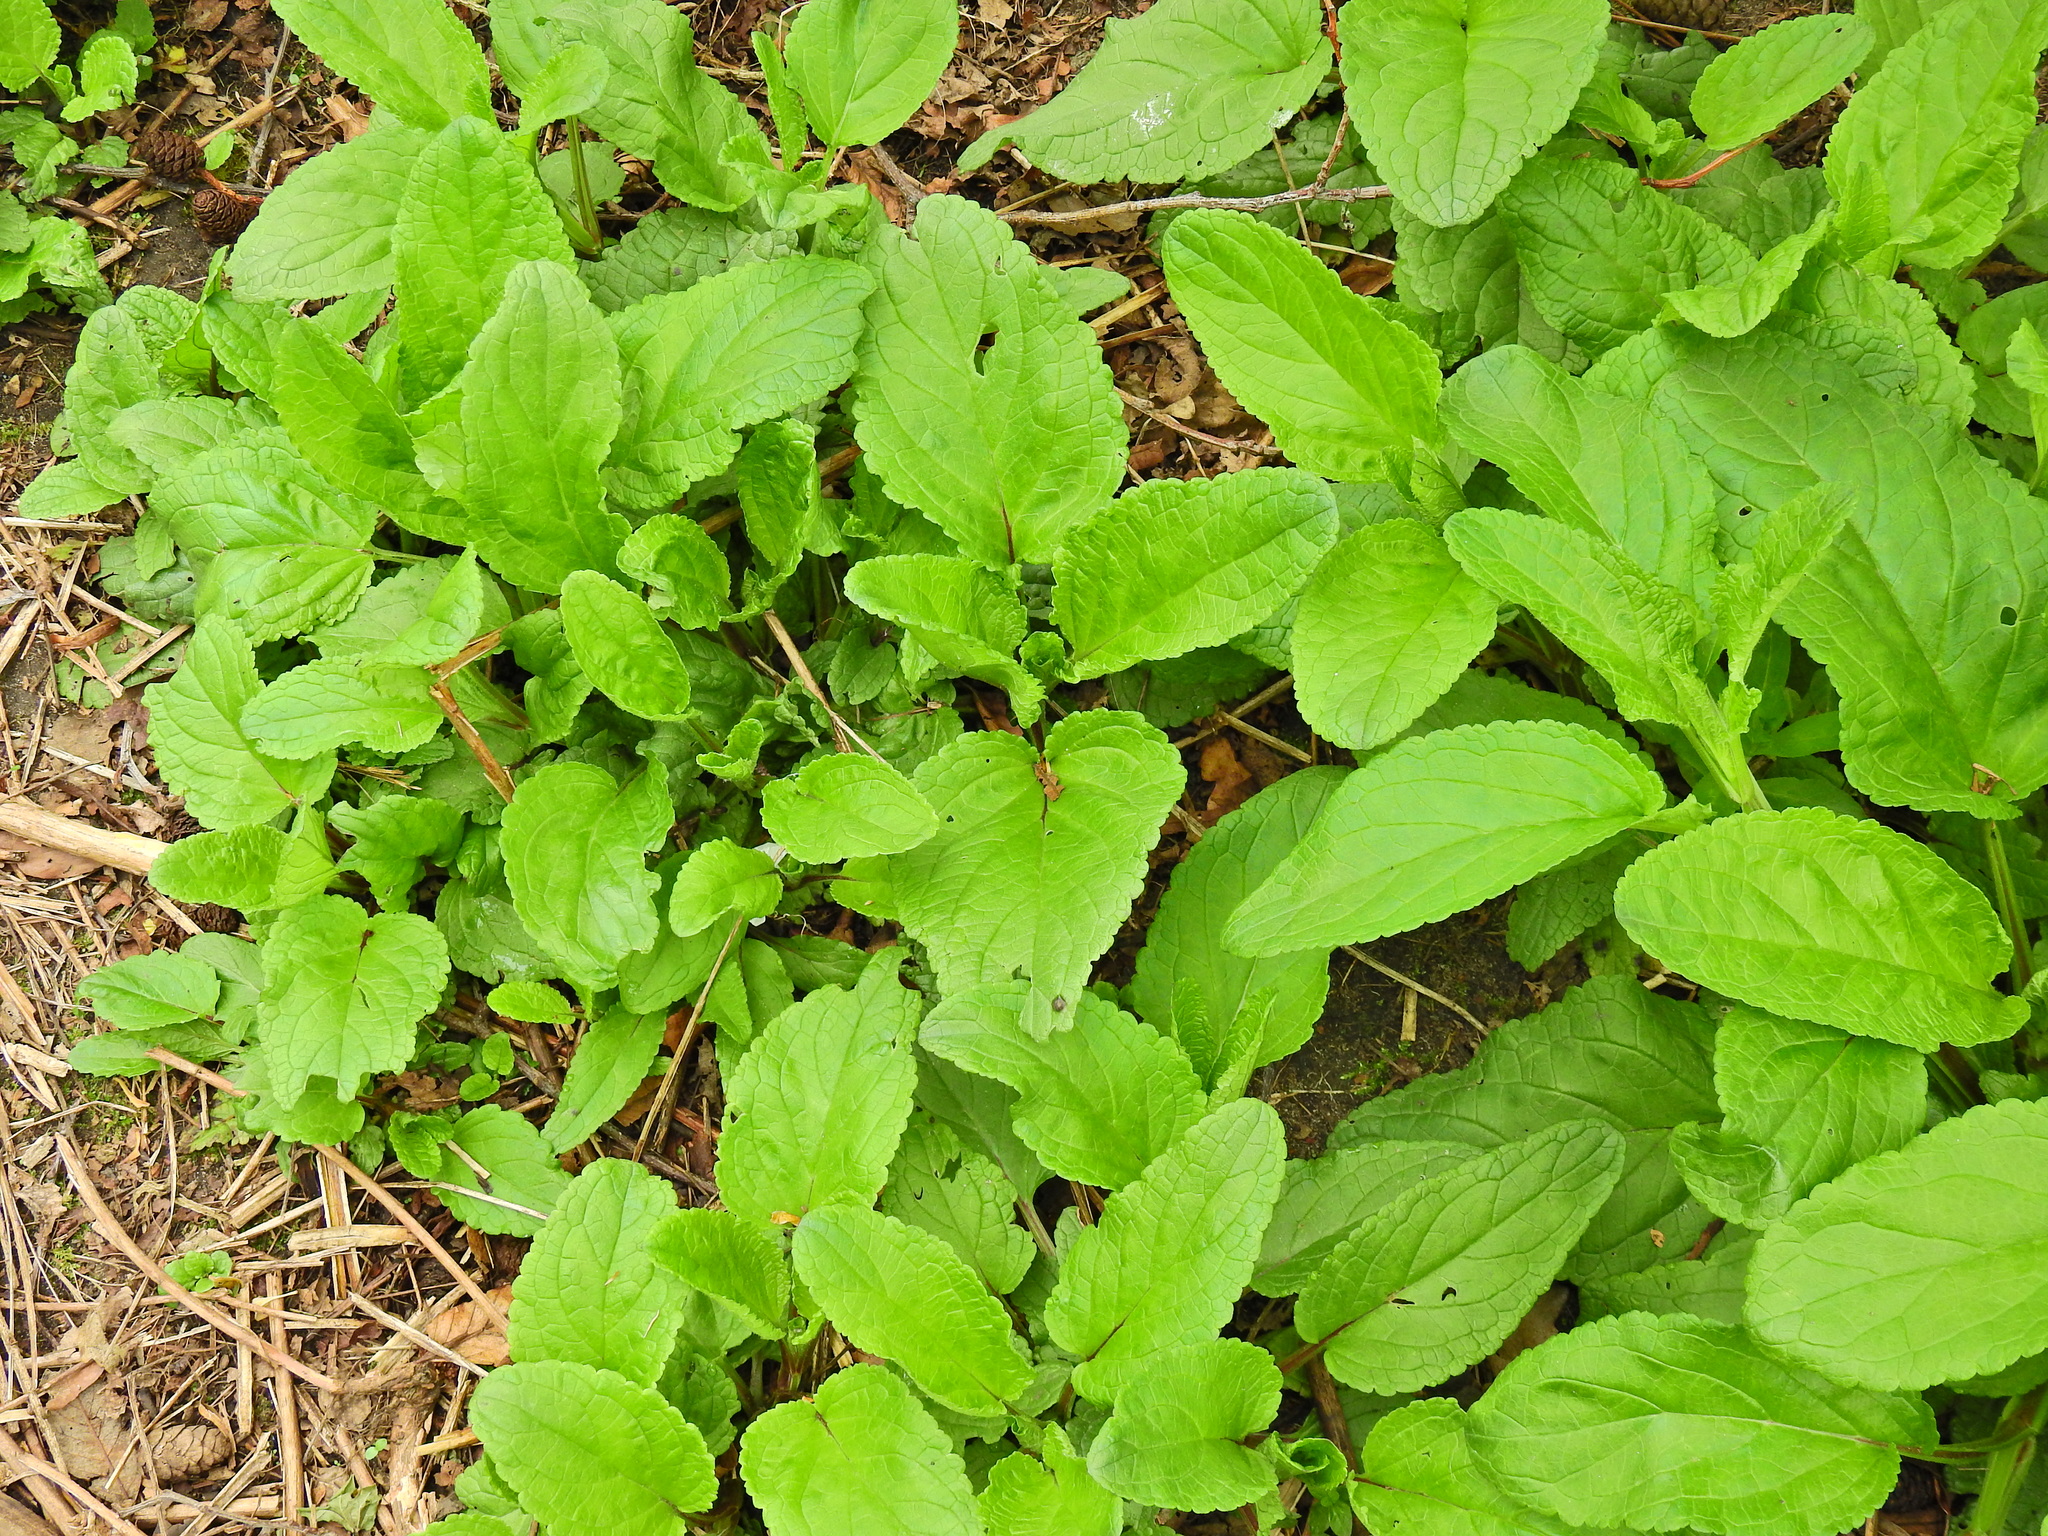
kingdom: Plantae
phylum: Tracheophyta
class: Magnoliopsida
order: Lamiales
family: Scrophulariaceae
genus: Scrophularia
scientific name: Scrophularia auriculata
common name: Water betony
